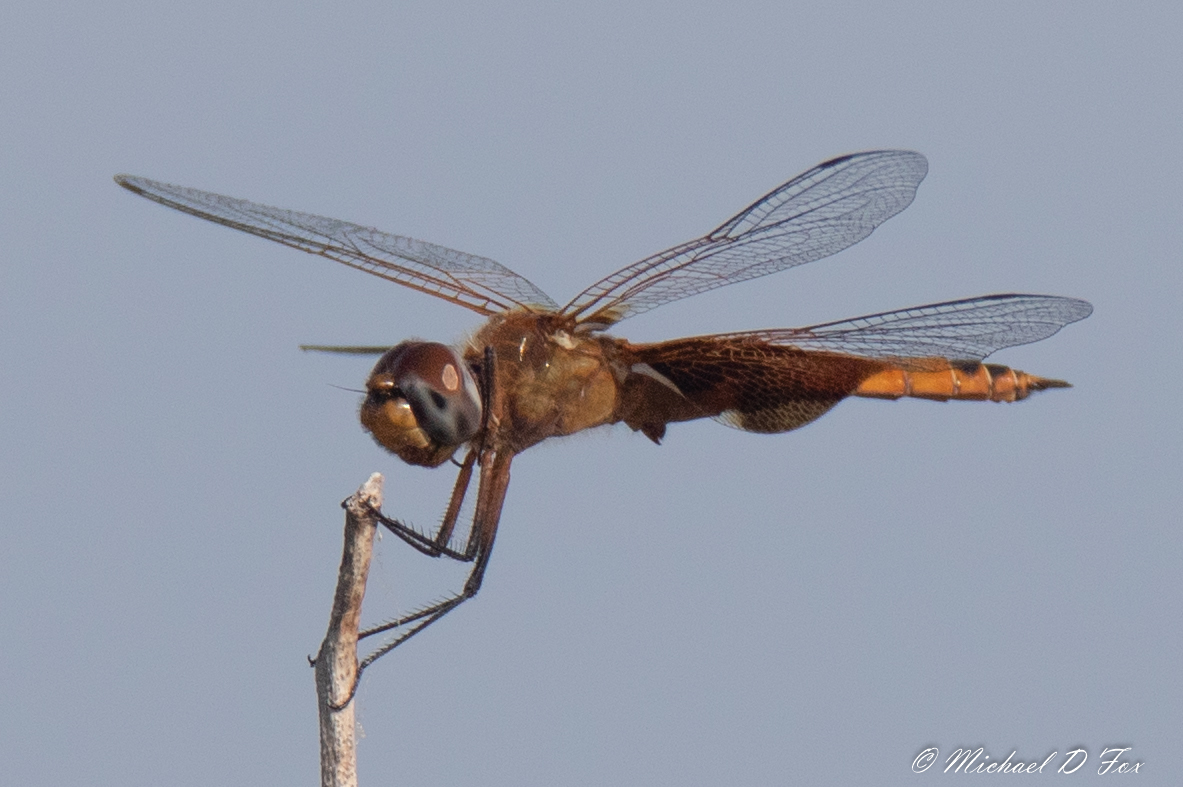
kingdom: Animalia
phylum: Arthropoda
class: Insecta
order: Odonata
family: Libellulidae
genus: Tramea
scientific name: Tramea onusta
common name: Red saddlebags
